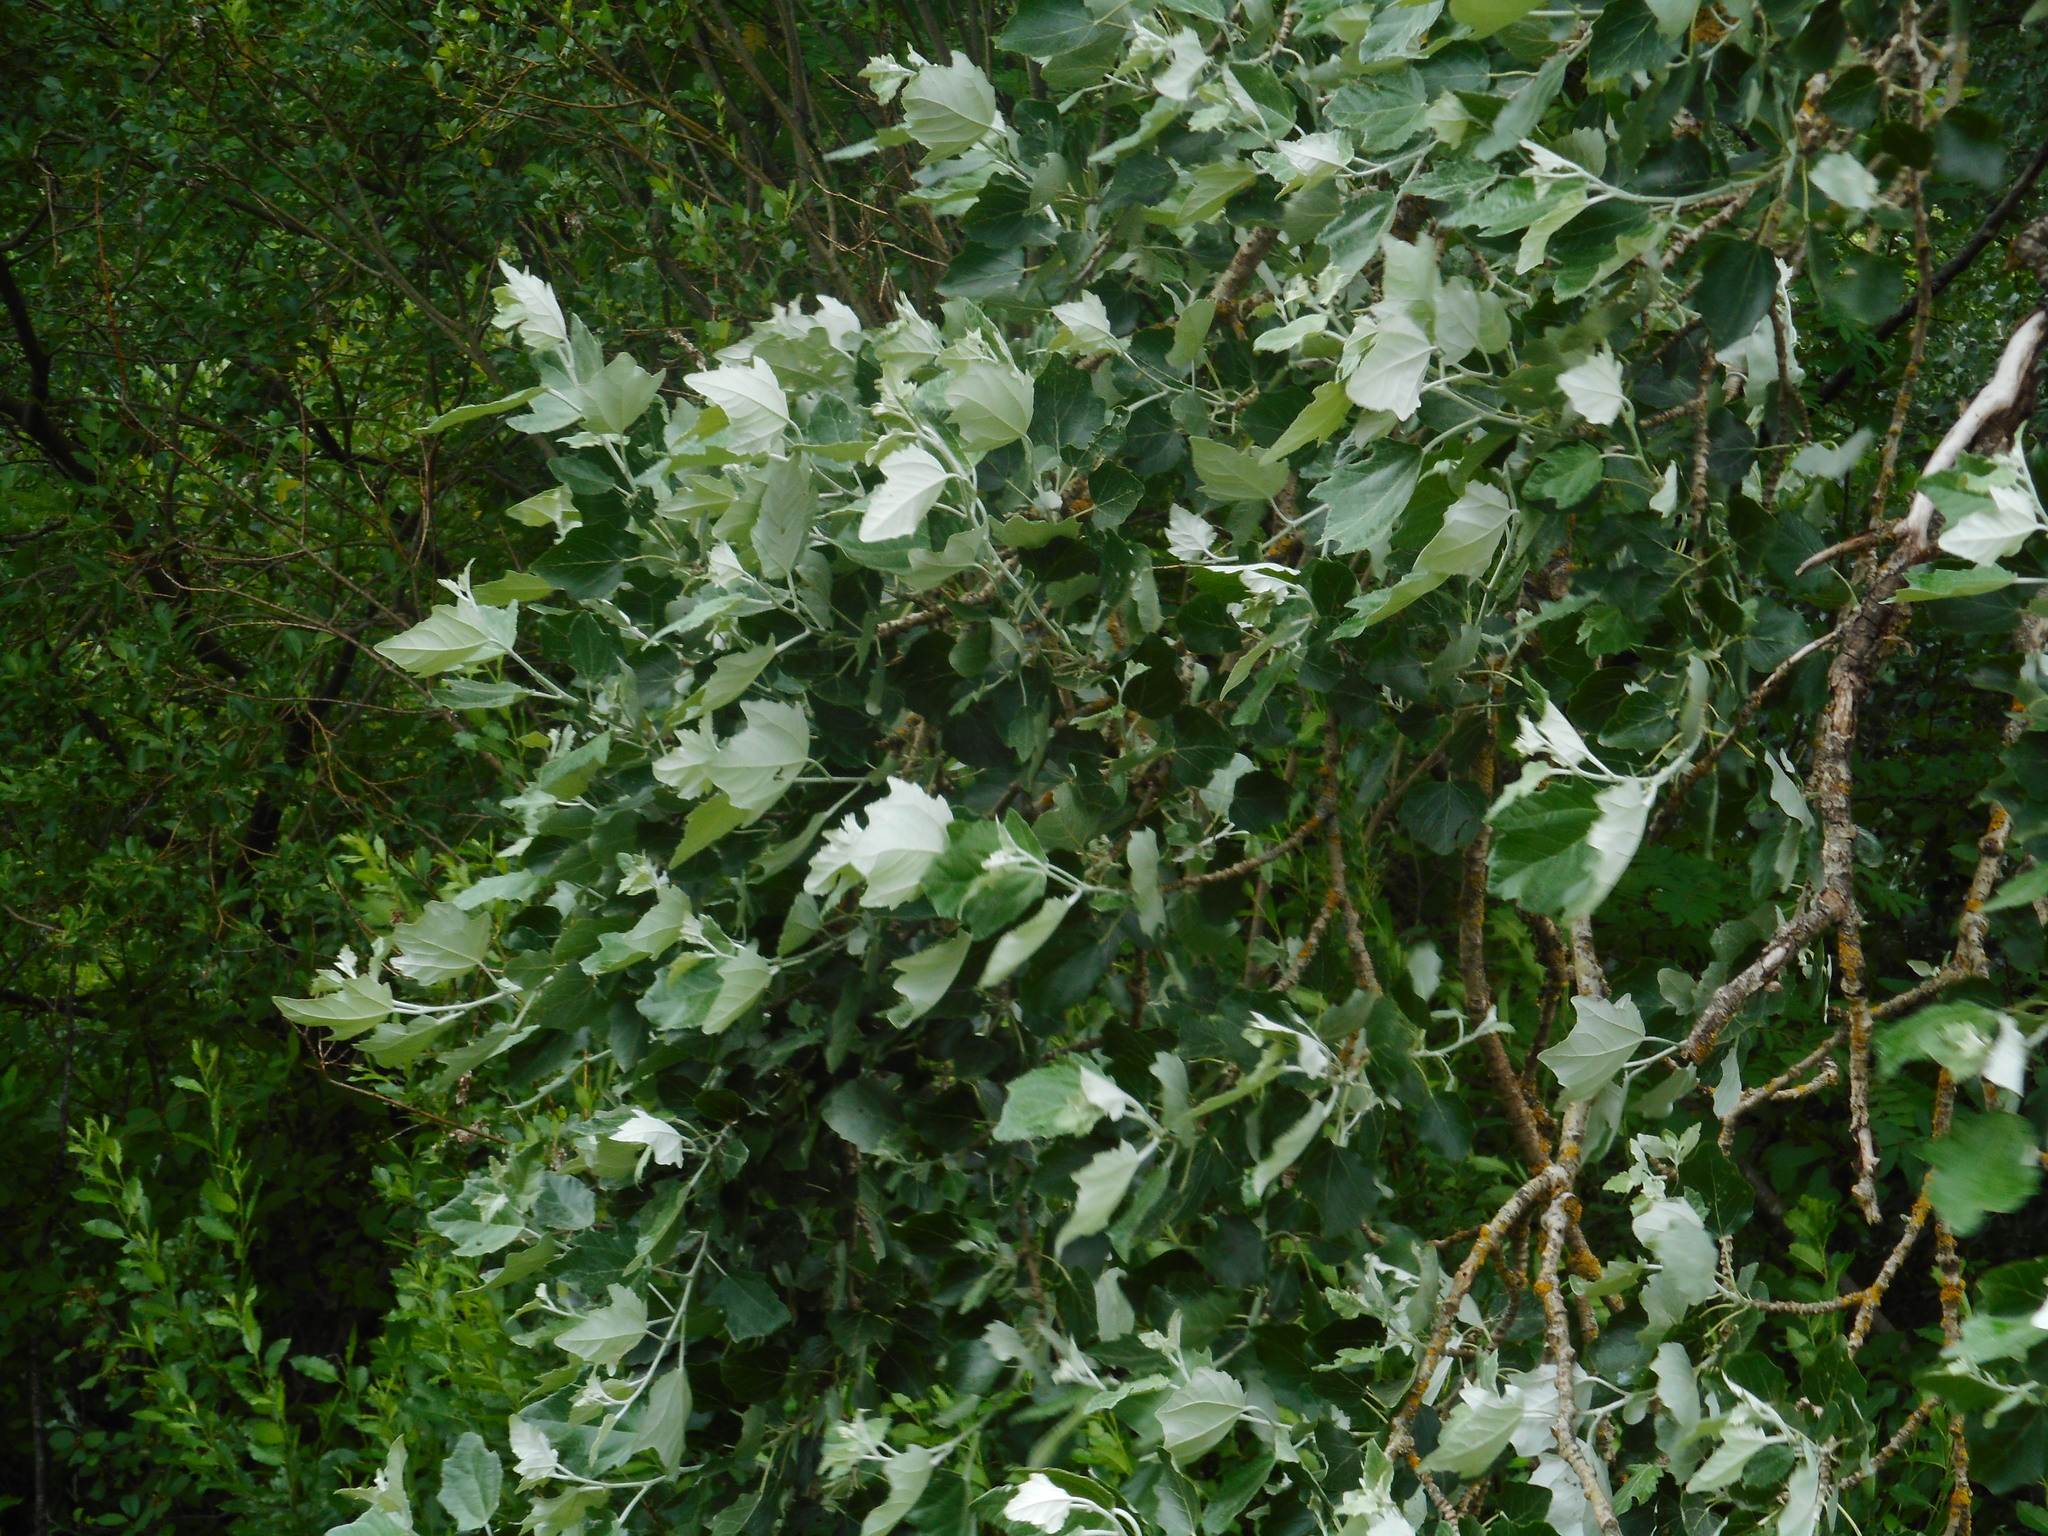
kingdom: Plantae
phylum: Tracheophyta
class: Magnoliopsida
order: Malpighiales
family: Salicaceae
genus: Populus
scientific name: Populus alba
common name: White poplar
